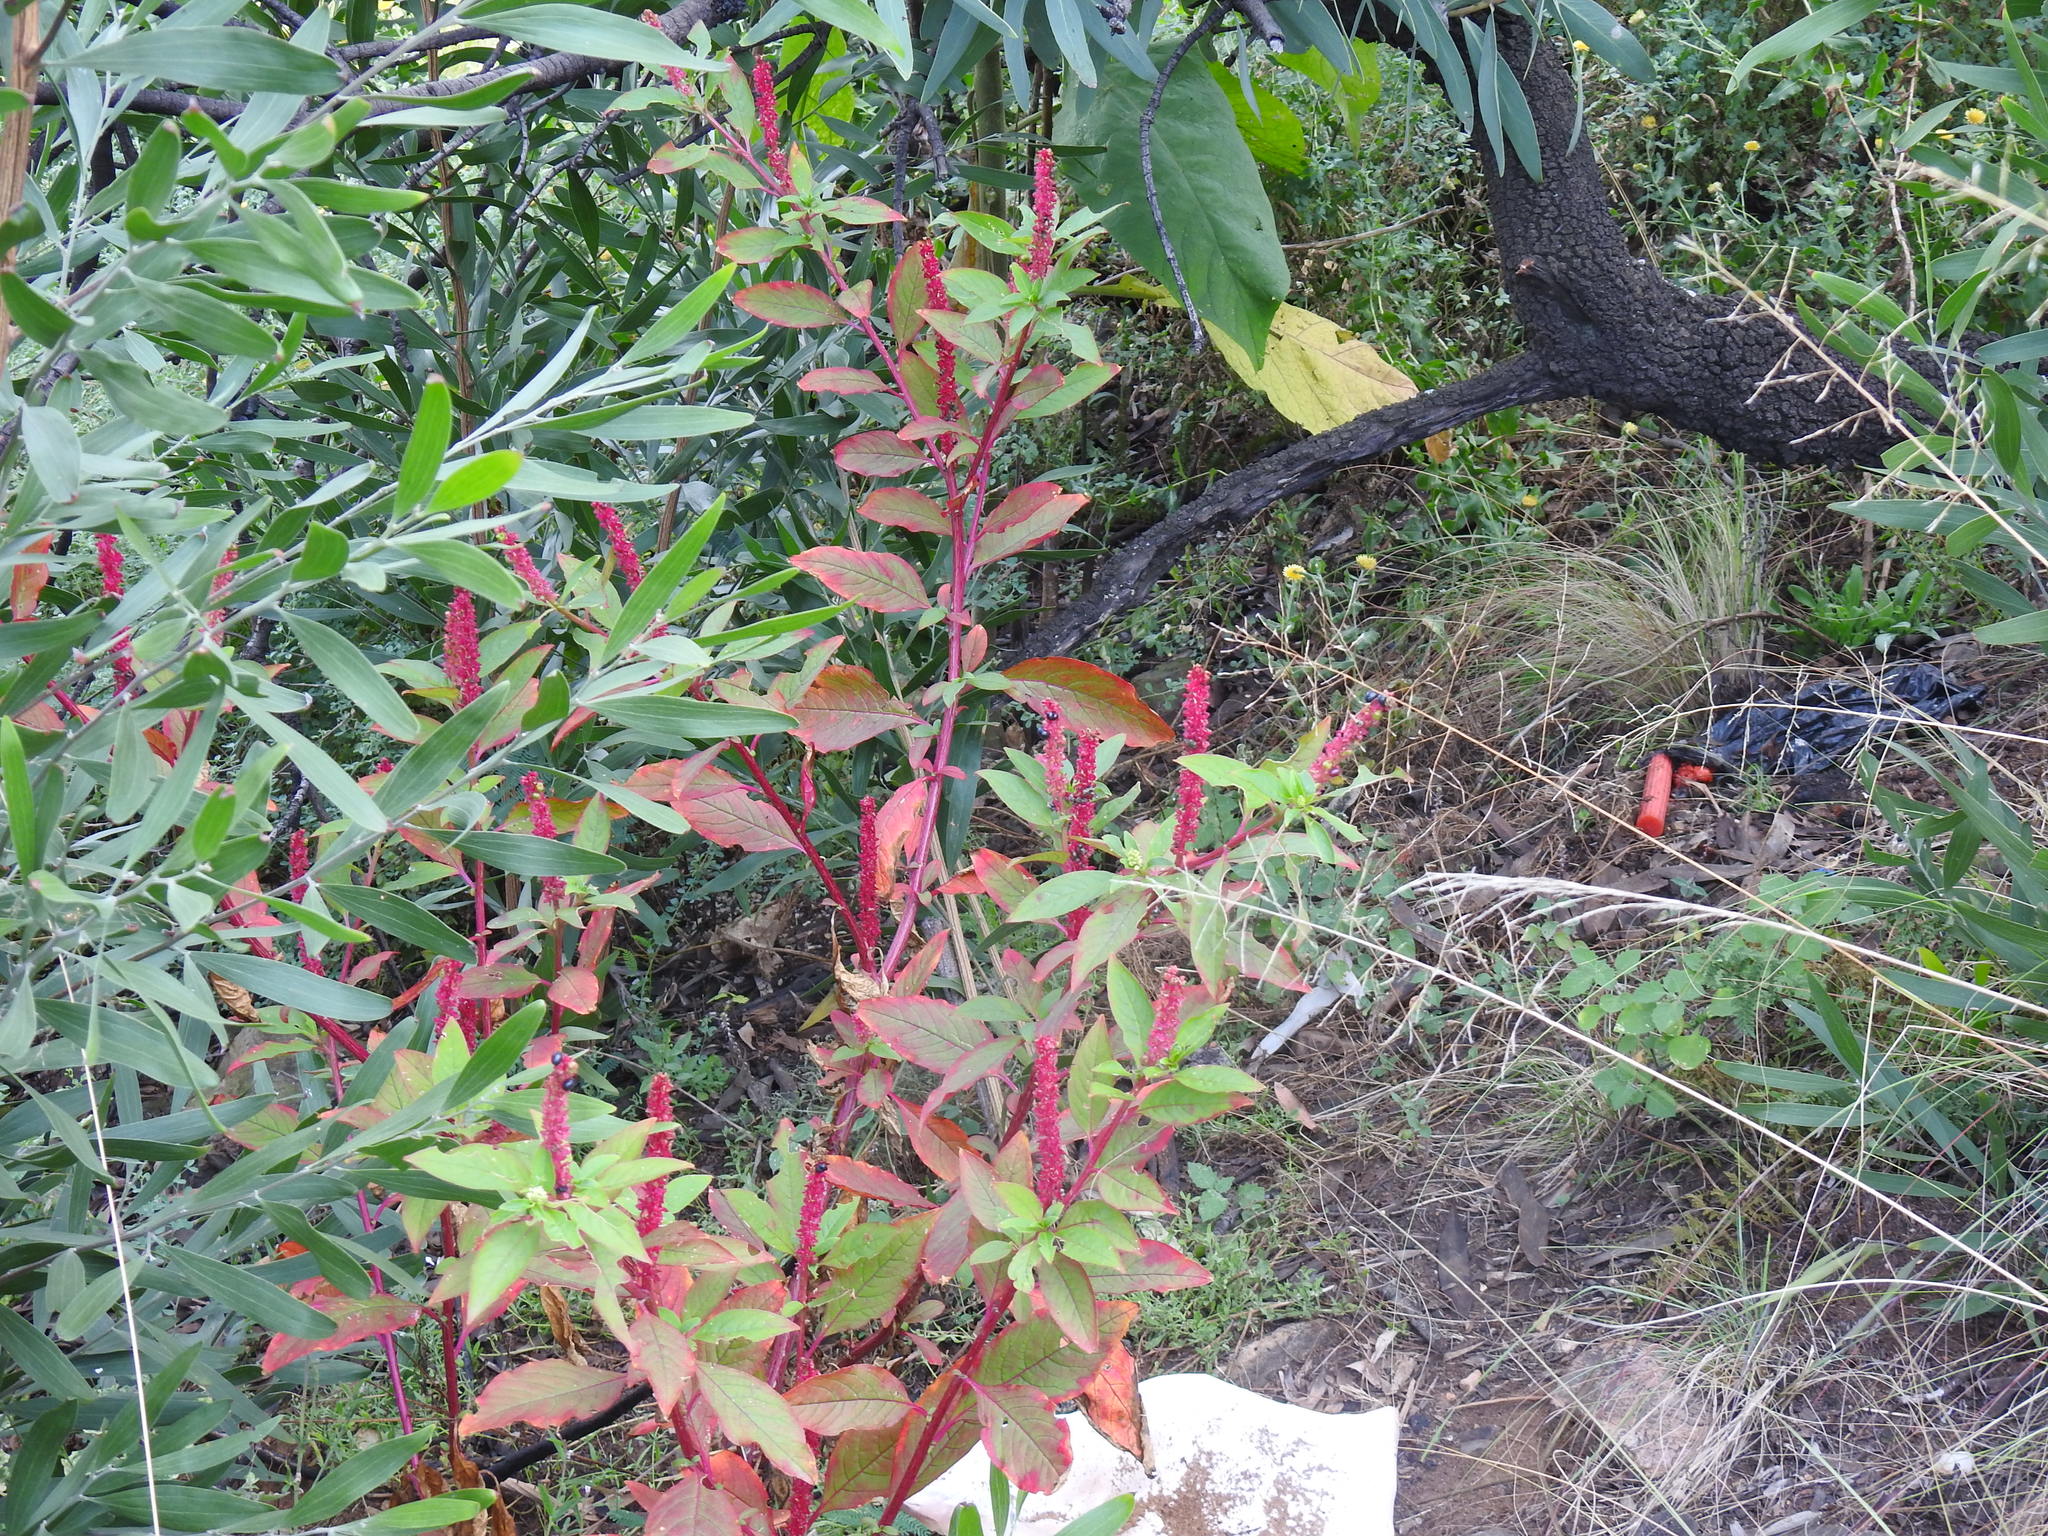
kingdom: Plantae
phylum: Tracheophyta
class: Magnoliopsida
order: Caryophyllales
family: Phytolaccaceae
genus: Phytolacca
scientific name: Phytolacca icosandra
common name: Button pokeweed
